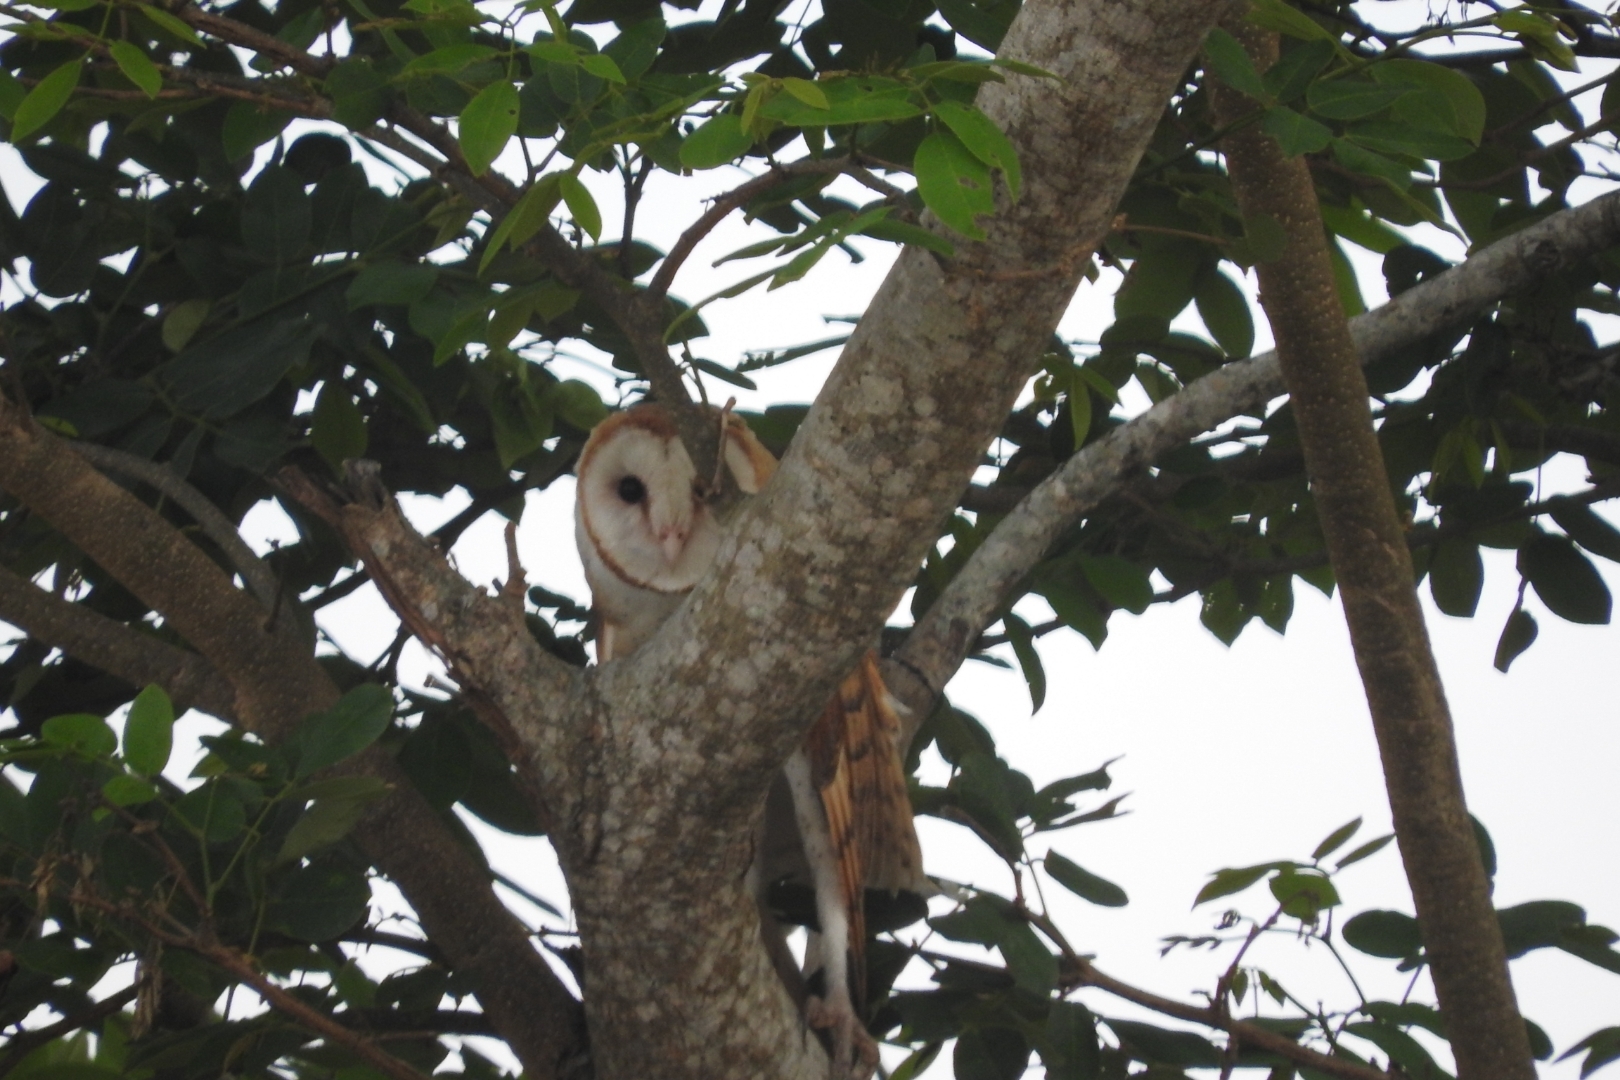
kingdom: Animalia
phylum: Chordata
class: Aves
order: Strigiformes
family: Tytonidae
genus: Tyto
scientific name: Tyto alba
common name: Barn owl
